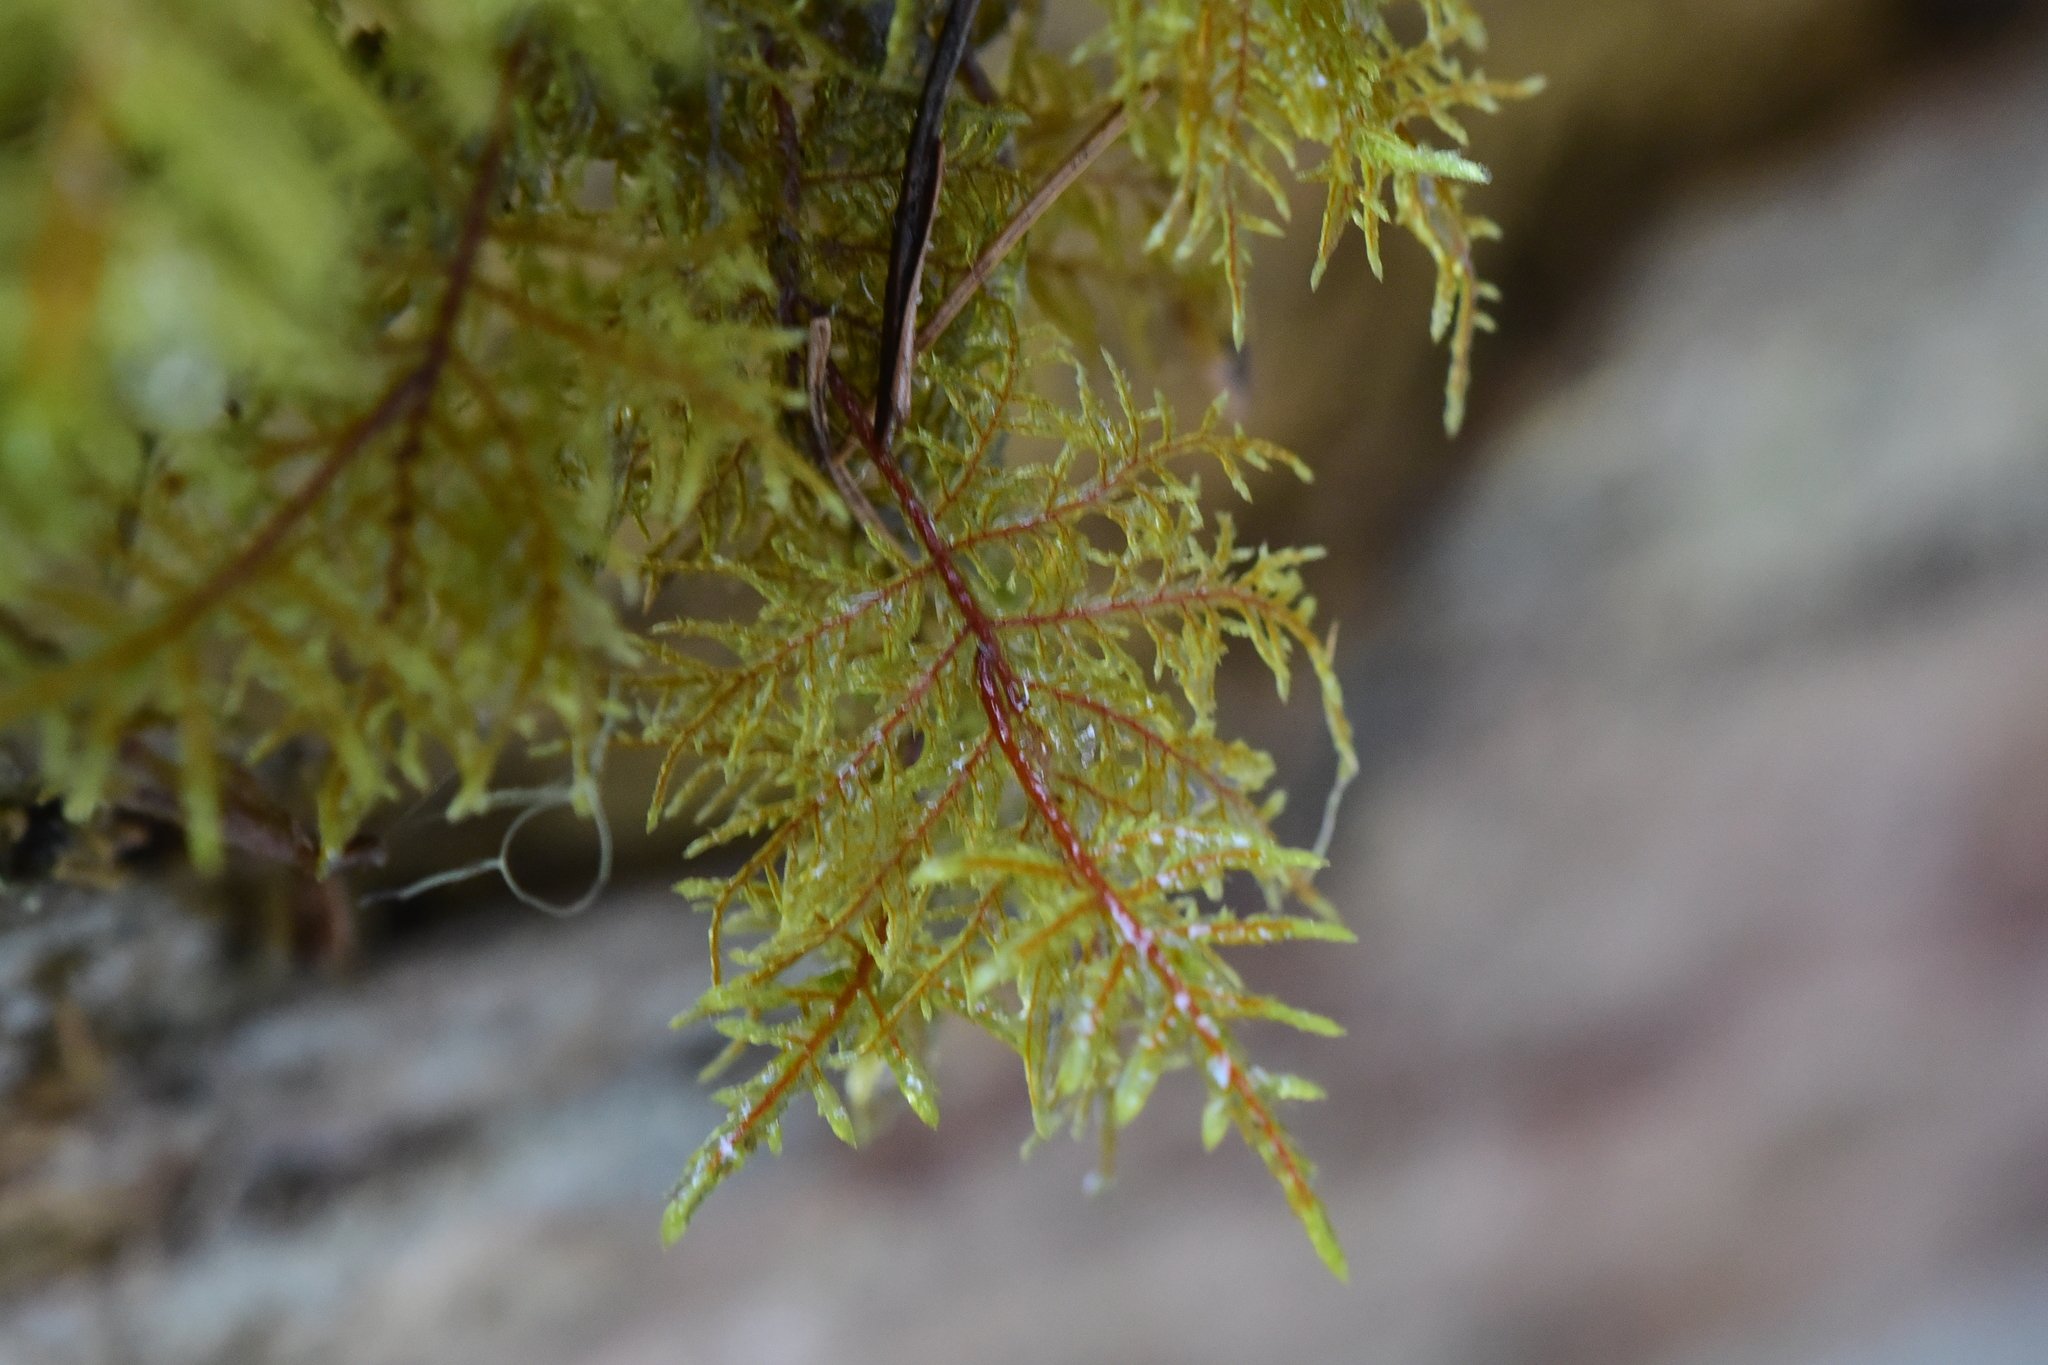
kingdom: Plantae
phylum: Bryophyta
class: Bryopsida
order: Hypnales
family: Hylocomiaceae
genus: Hylocomium
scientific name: Hylocomium splendens
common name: Stairstep moss
